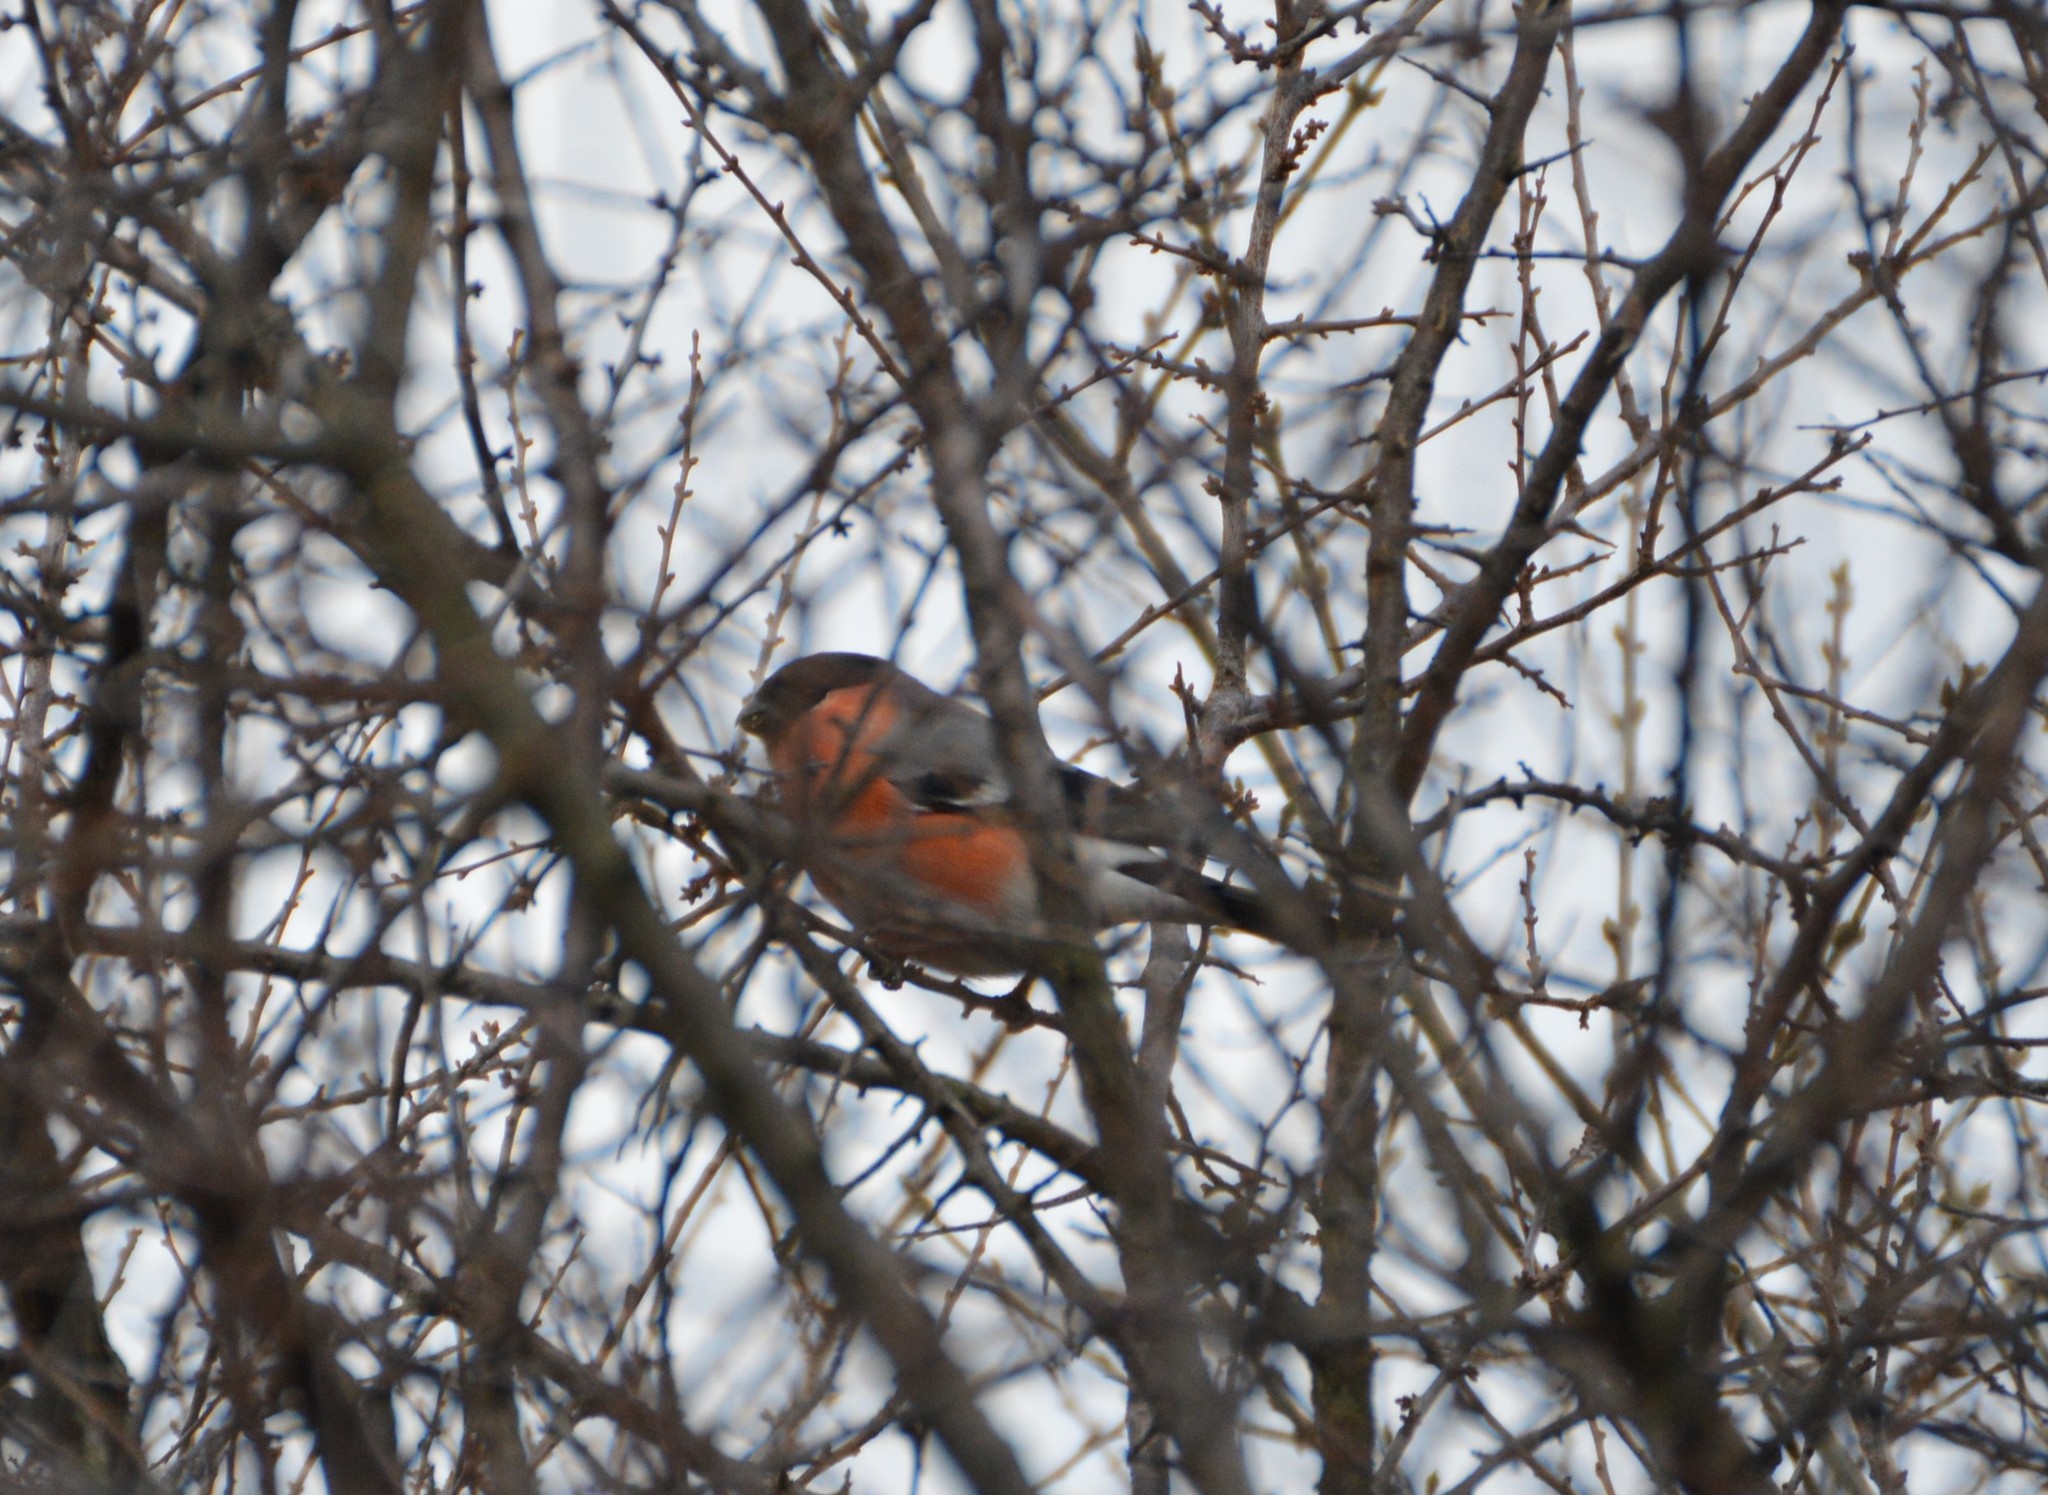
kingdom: Animalia
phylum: Chordata
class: Aves
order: Passeriformes
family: Fringillidae
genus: Pyrrhula
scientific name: Pyrrhula pyrrhula
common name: Eurasian bullfinch
